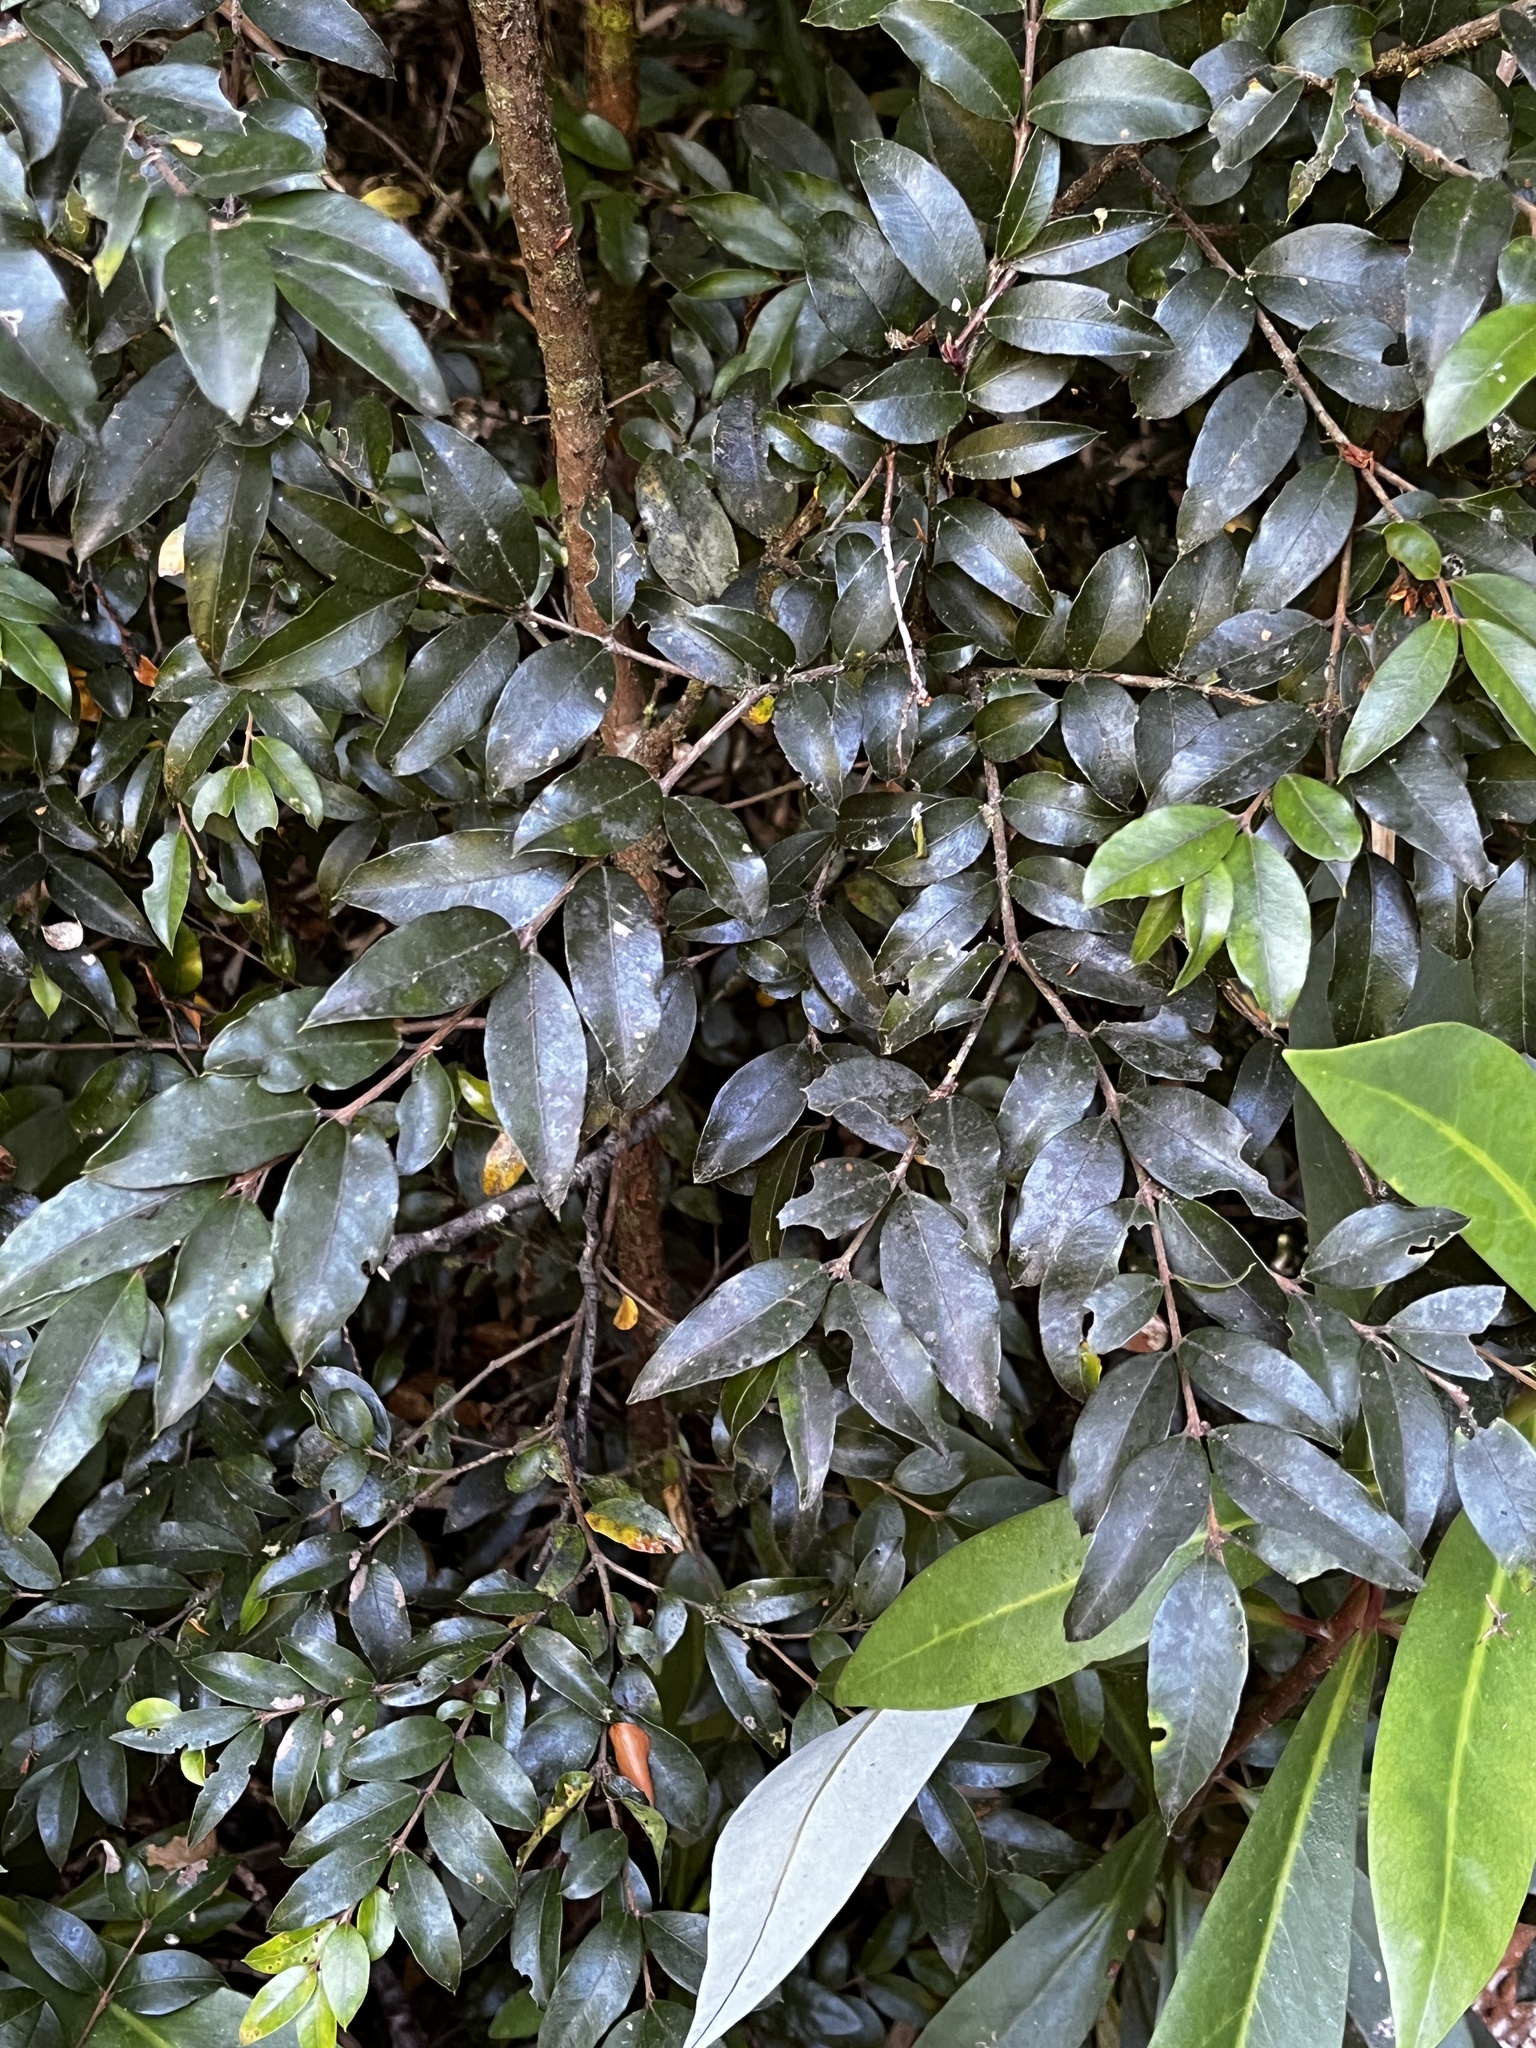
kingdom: Plantae
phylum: Tracheophyta
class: Magnoliopsida
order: Myrtales
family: Myrtaceae
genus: Amomyrtus
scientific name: Amomyrtus luma
